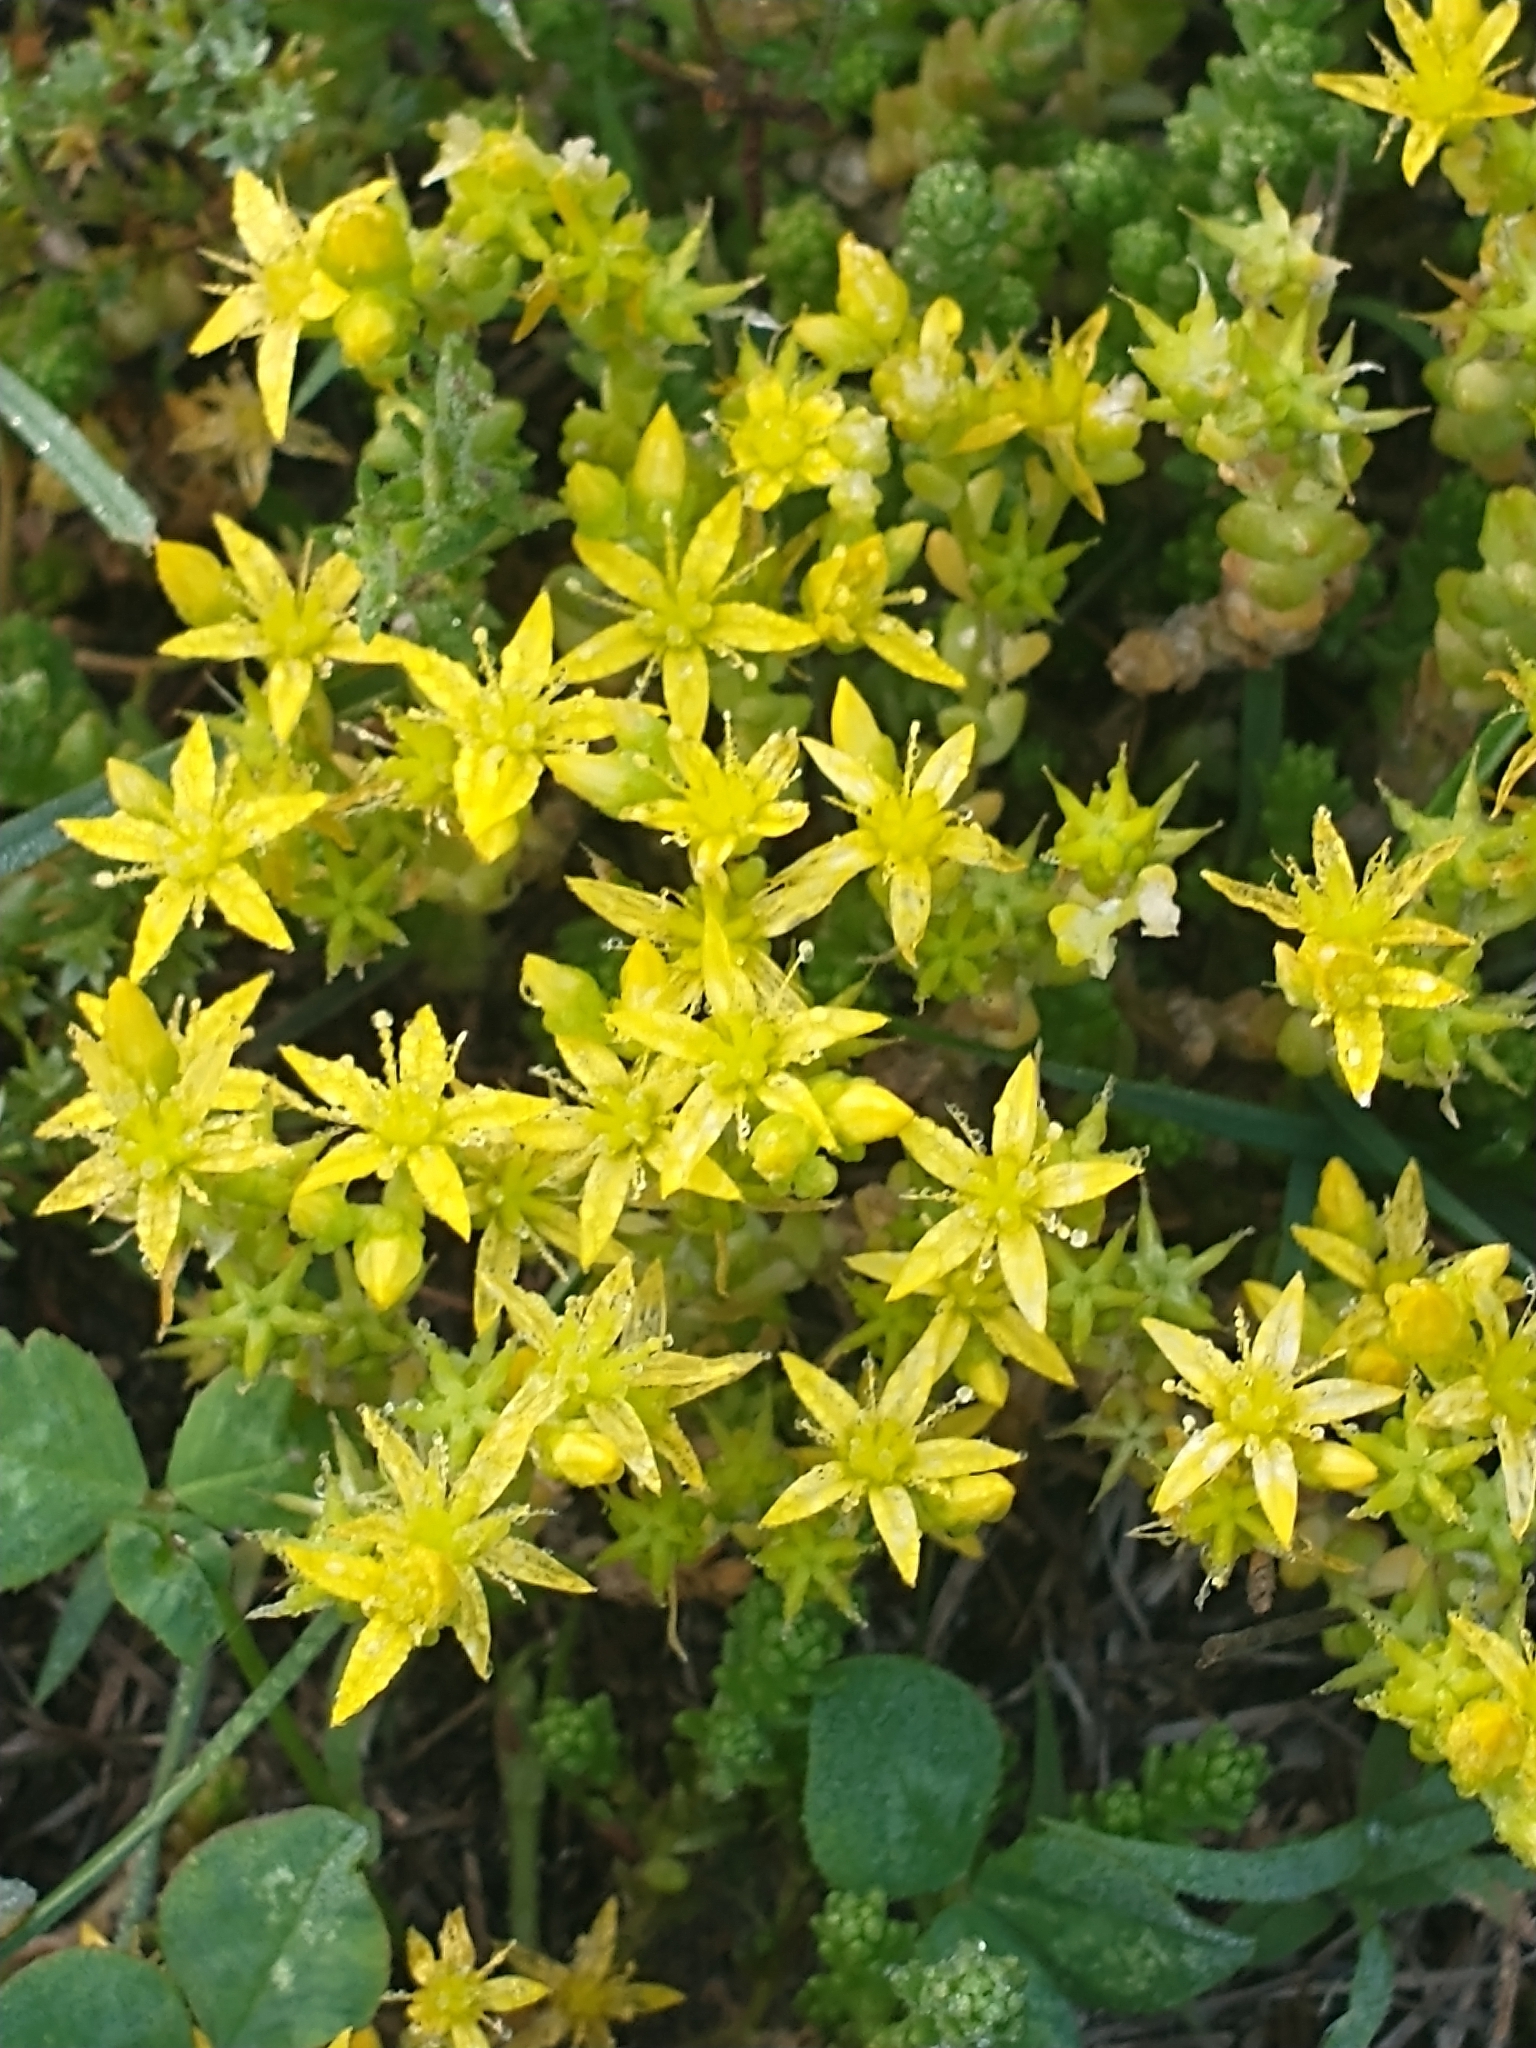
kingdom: Plantae
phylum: Tracheophyta
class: Magnoliopsida
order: Saxifragales
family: Crassulaceae
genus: Sedum
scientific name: Sedum acre
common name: Biting stonecrop
